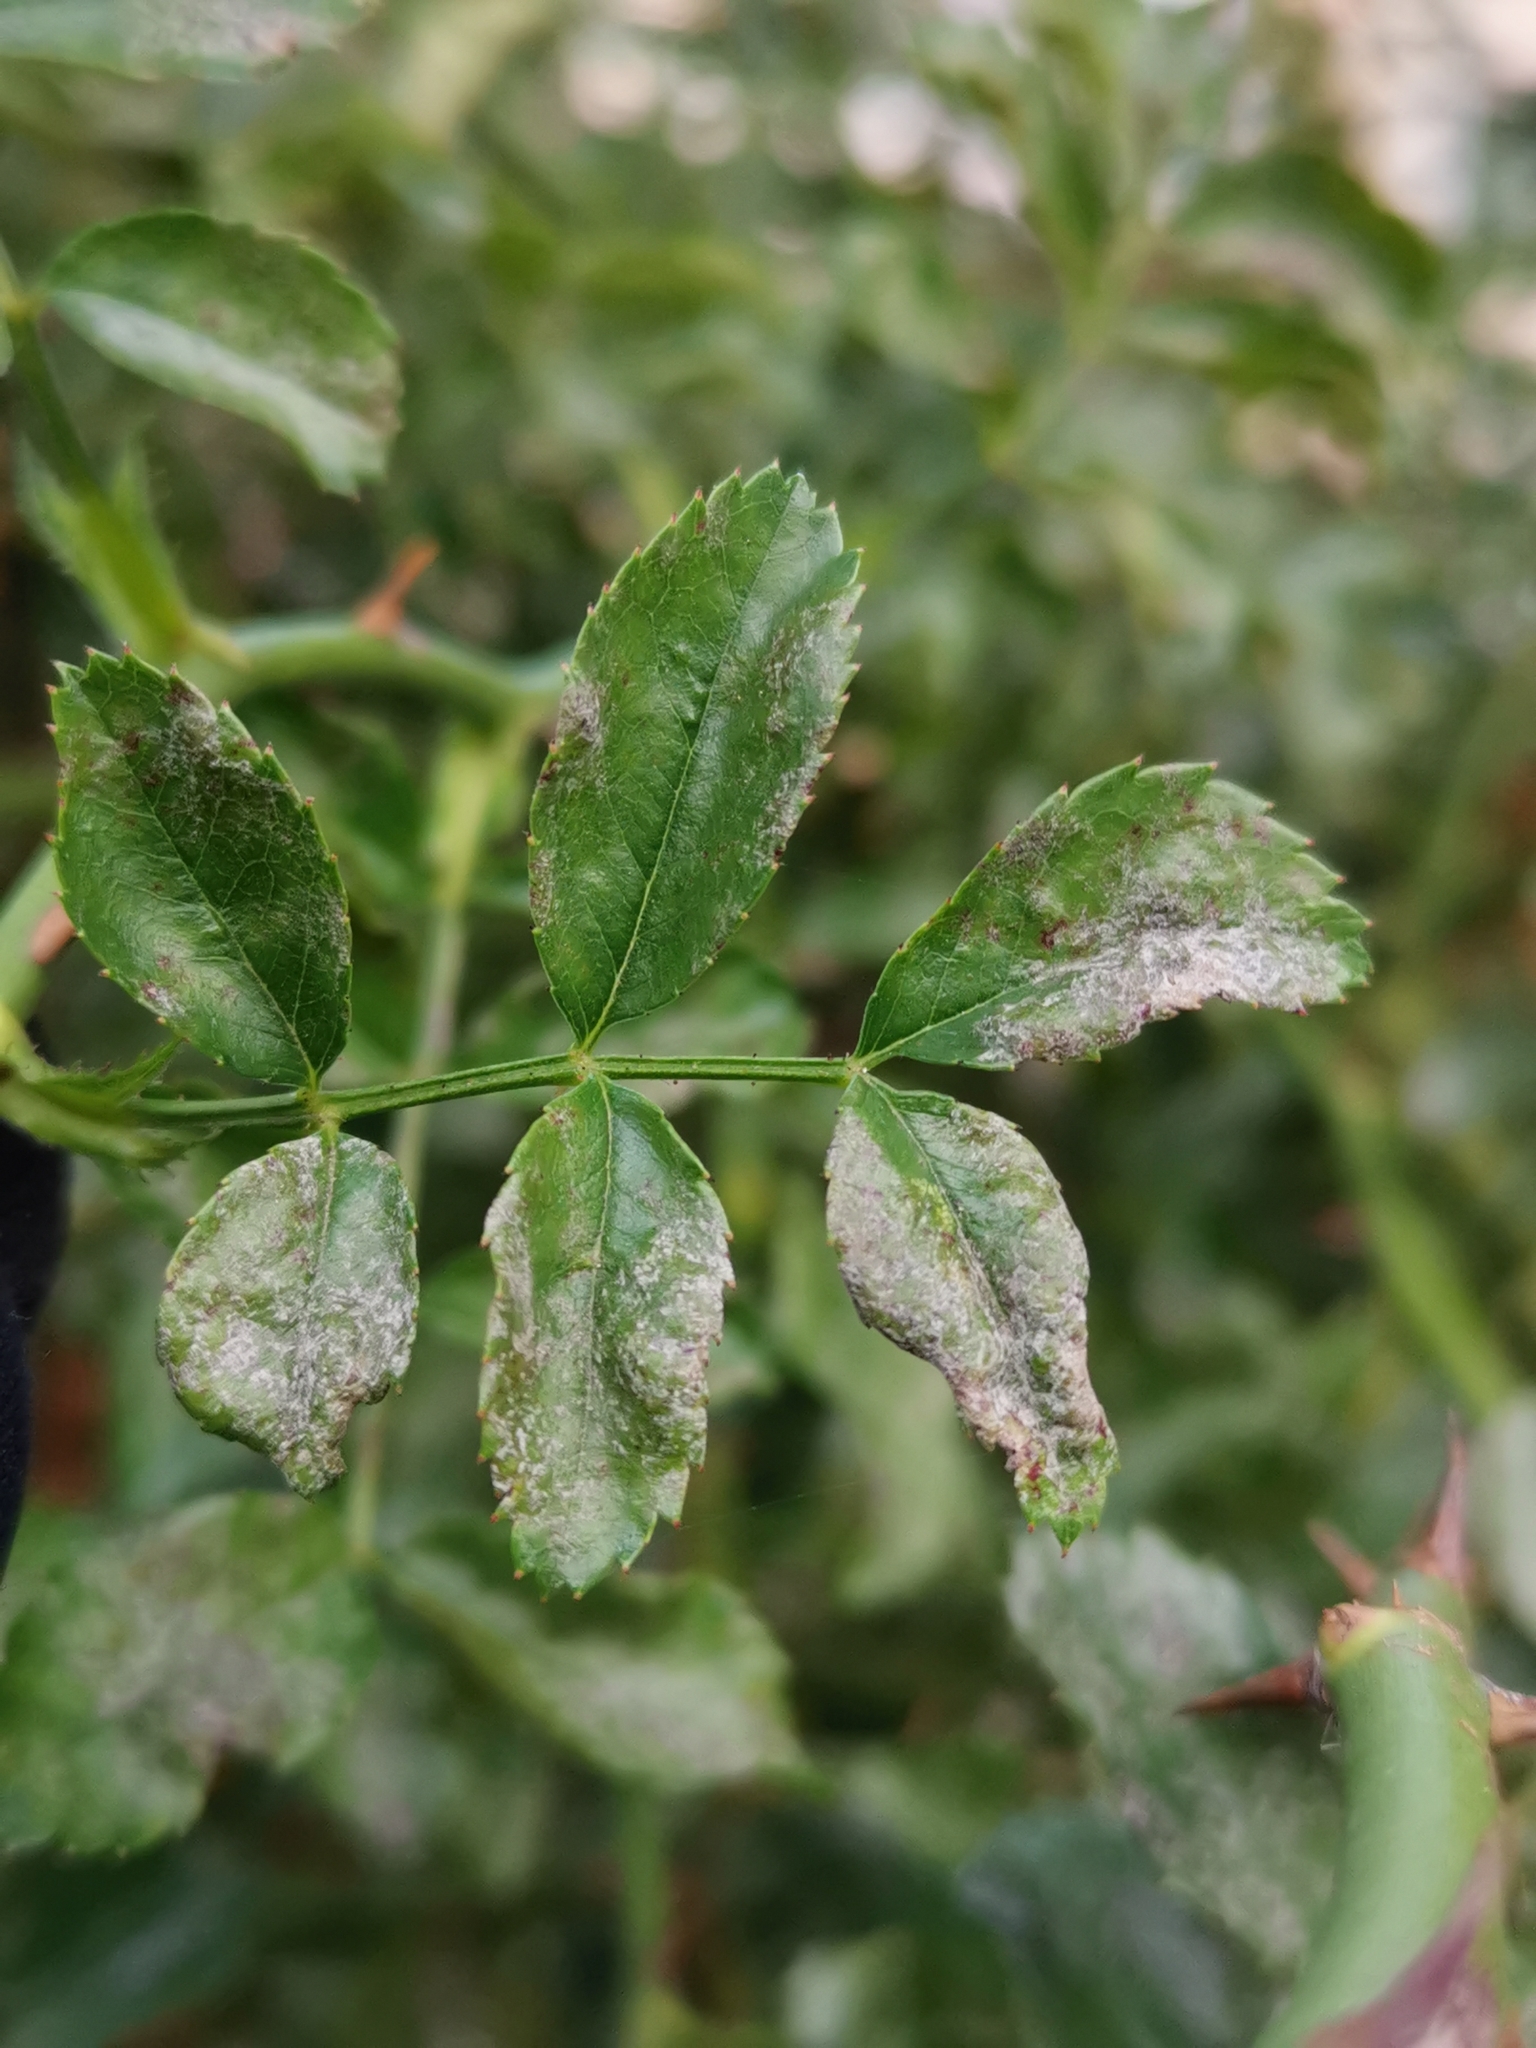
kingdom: Fungi
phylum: Ascomycota
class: Leotiomycetes
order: Helotiales
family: Erysiphaceae
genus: Podosphaera
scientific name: Podosphaera pannosa
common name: Rose mildew
